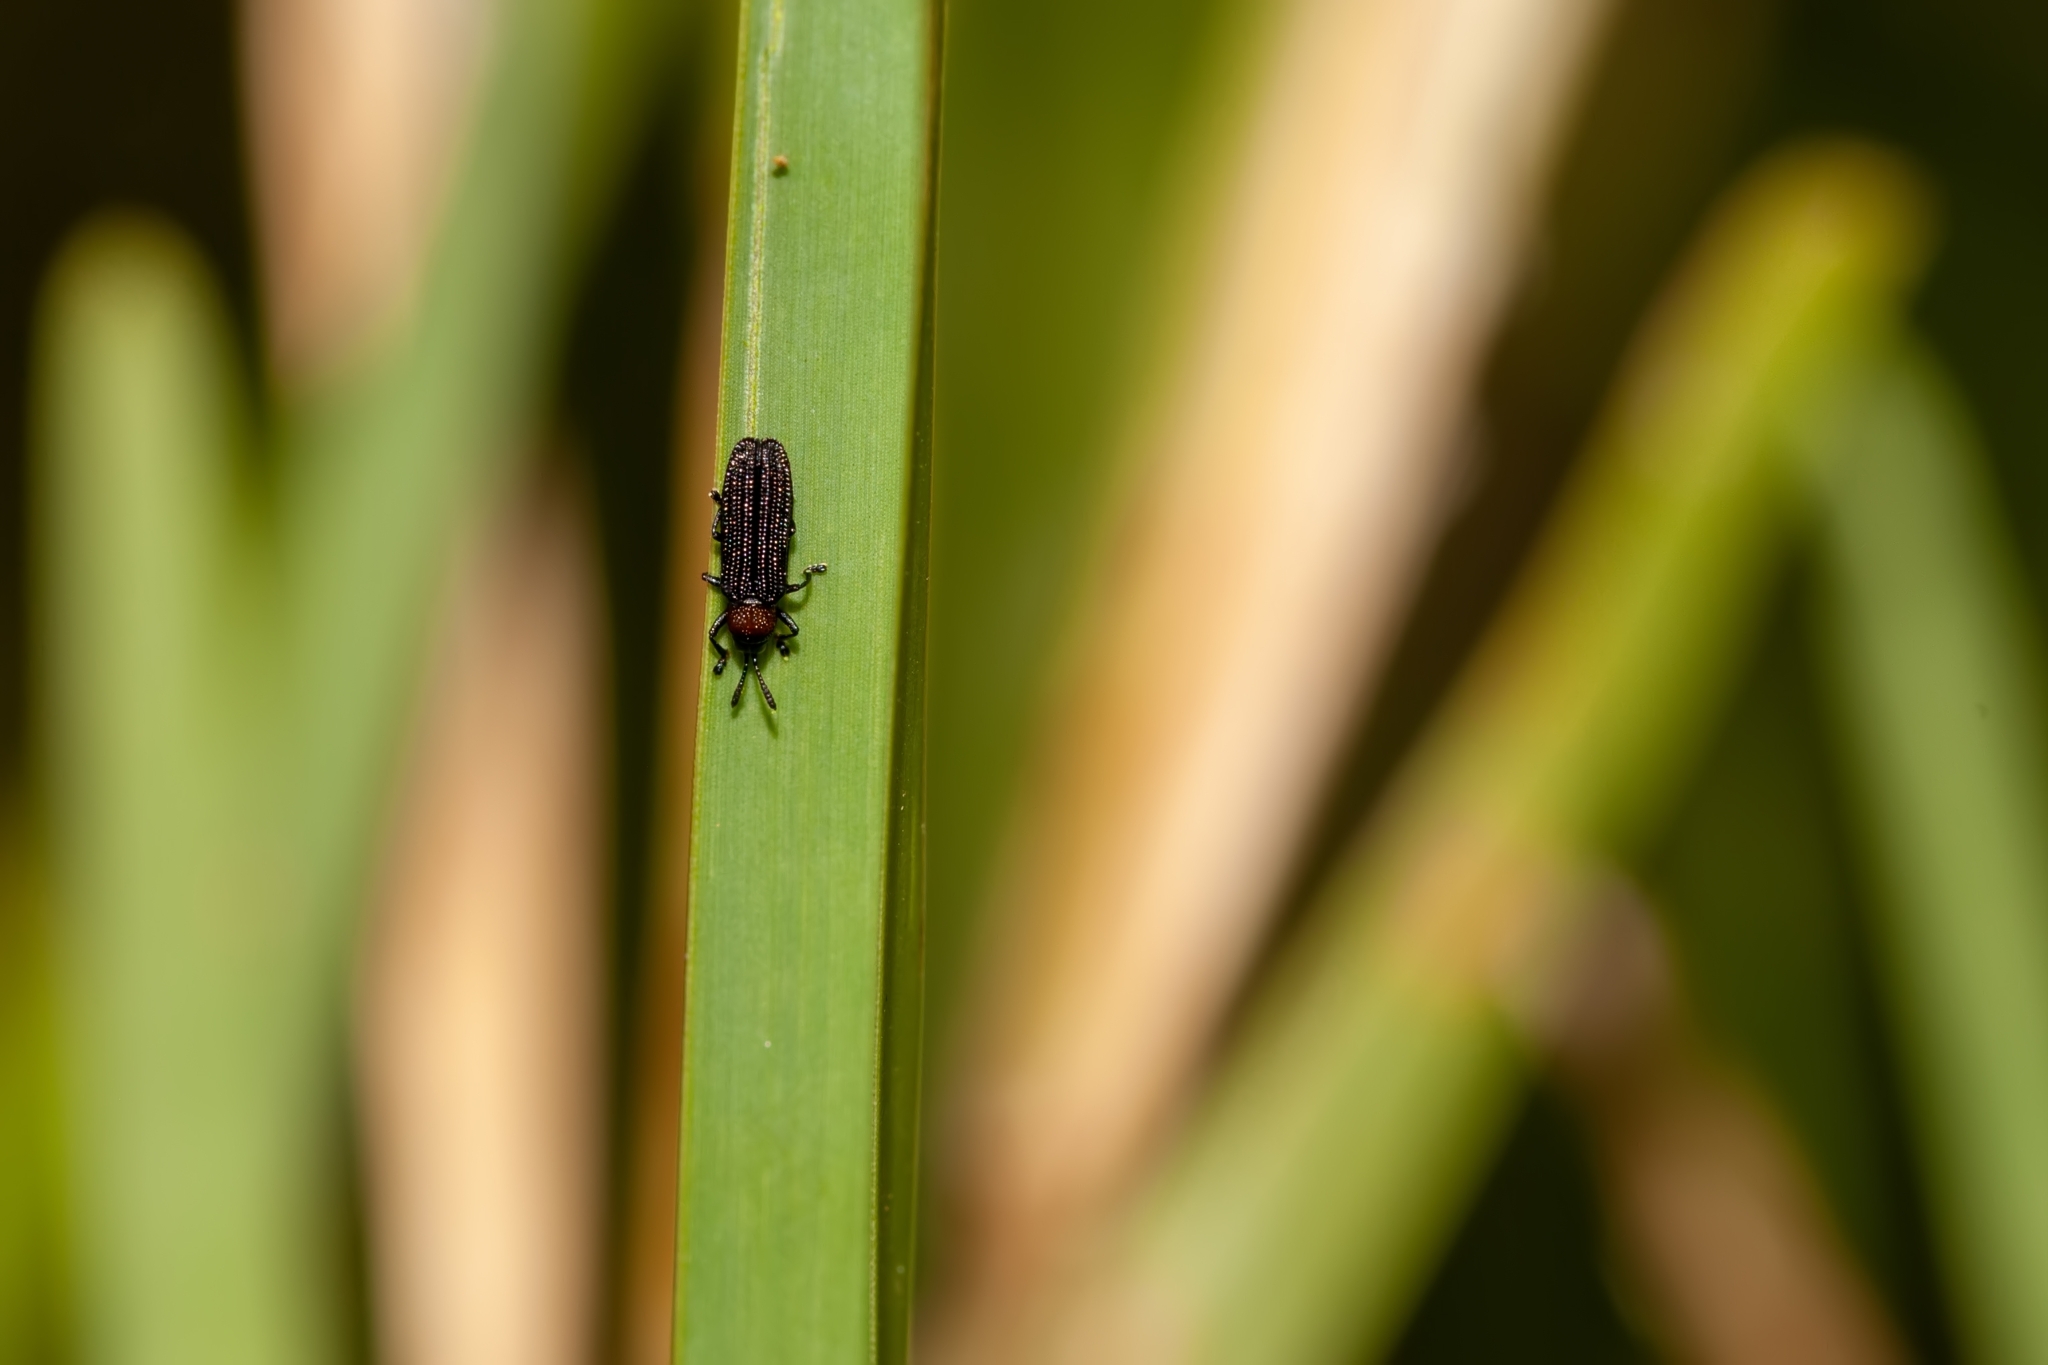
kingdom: Animalia
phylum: Arthropoda
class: Insecta
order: Coleoptera
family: Chrysomelidae
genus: Anisostena
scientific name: Anisostena ariadne
